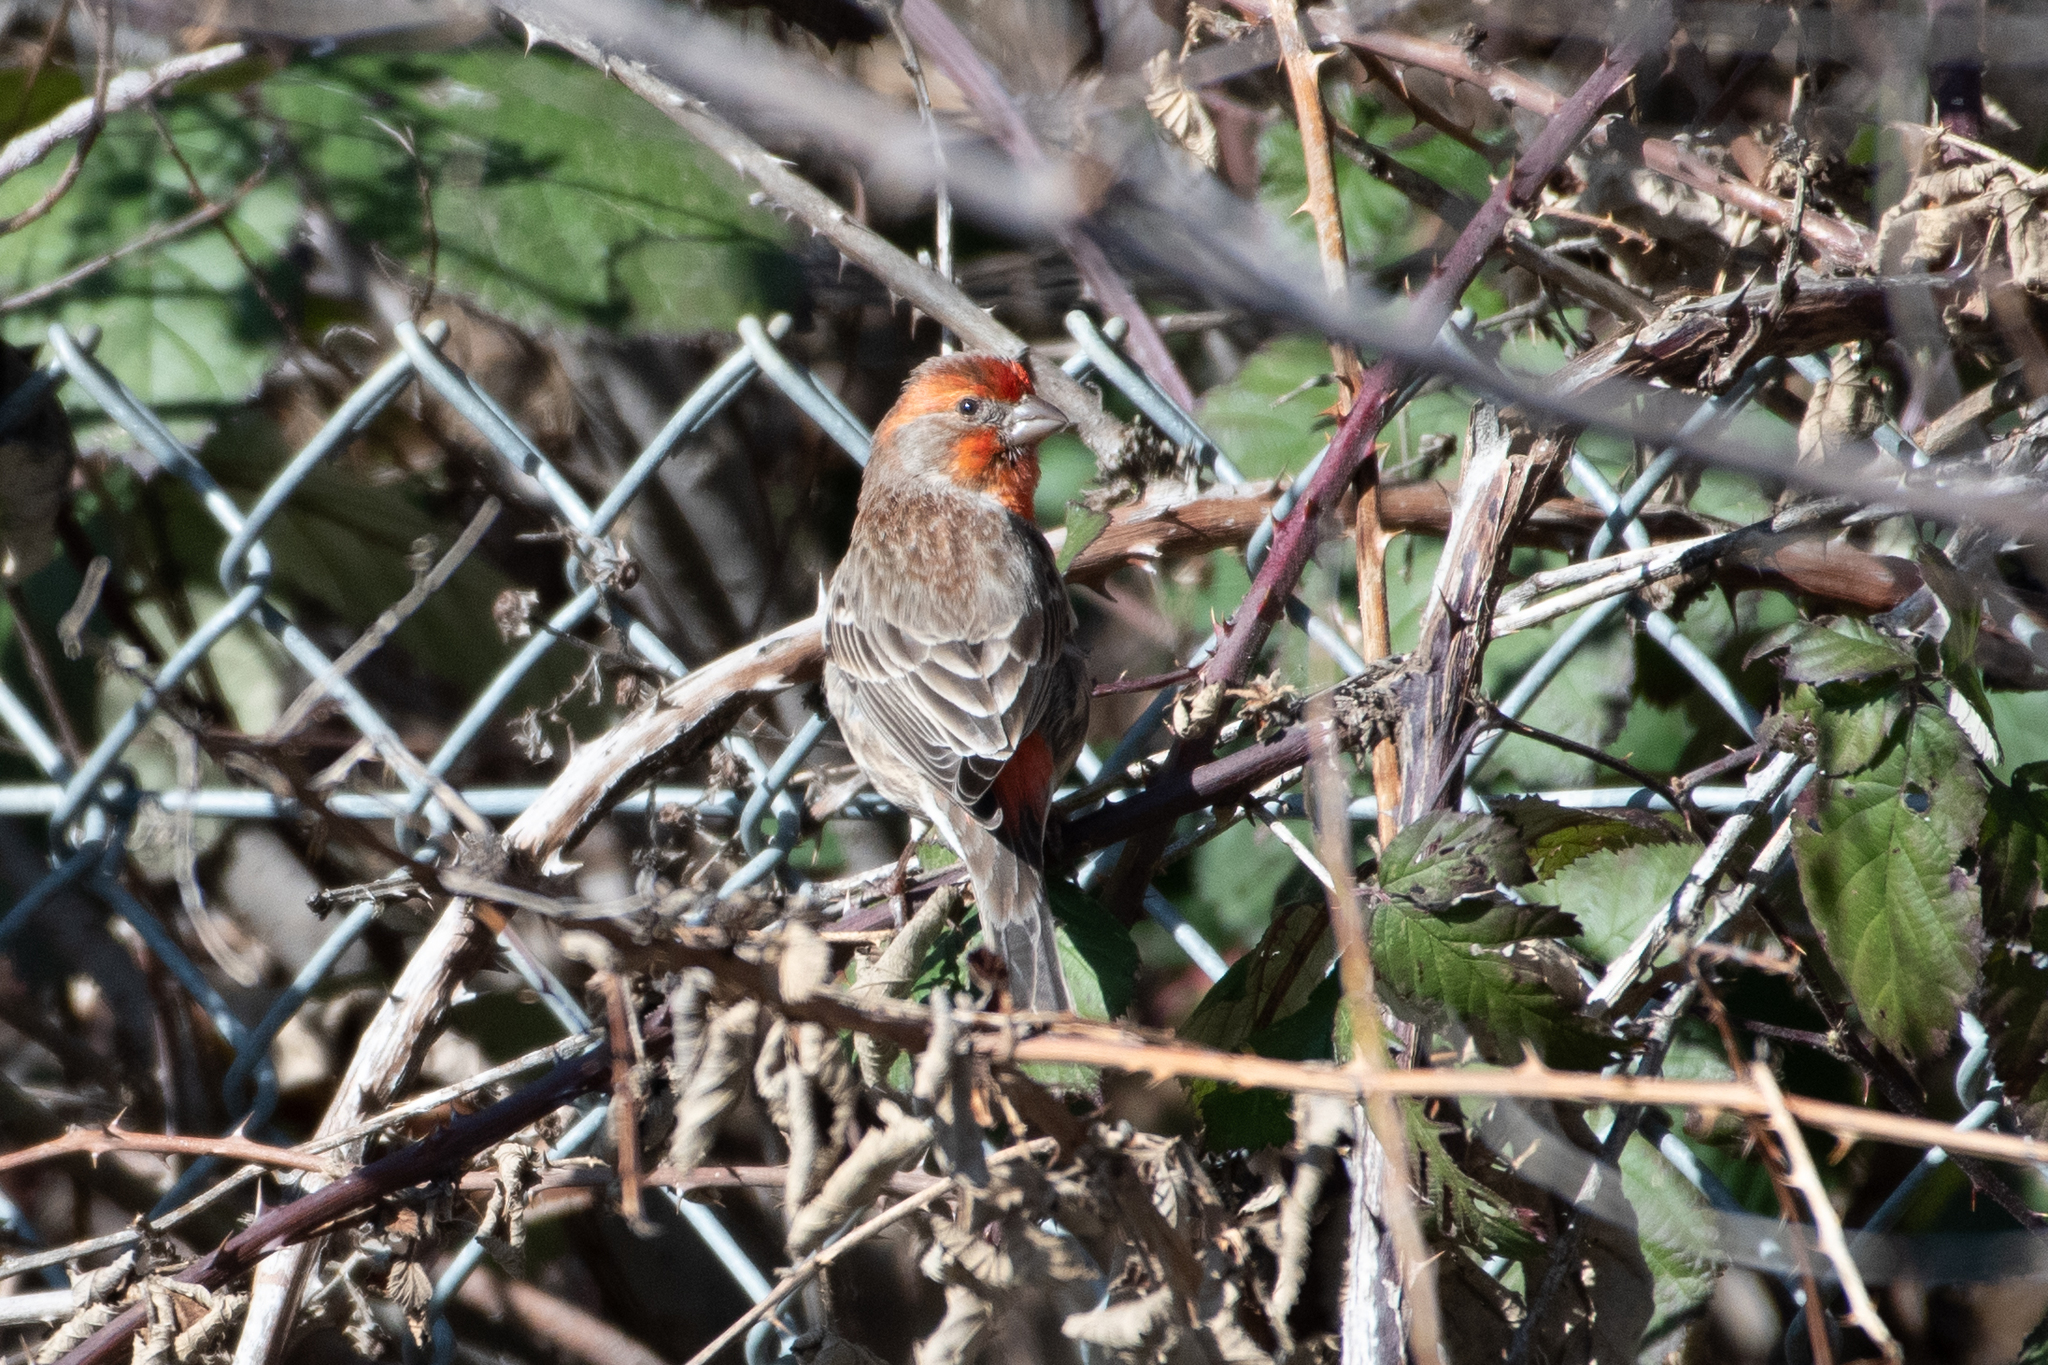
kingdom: Animalia
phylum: Chordata
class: Aves
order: Passeriformes
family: Fringillidae
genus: Haemorhous
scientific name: Haemorhous mexicanus
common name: House finch
